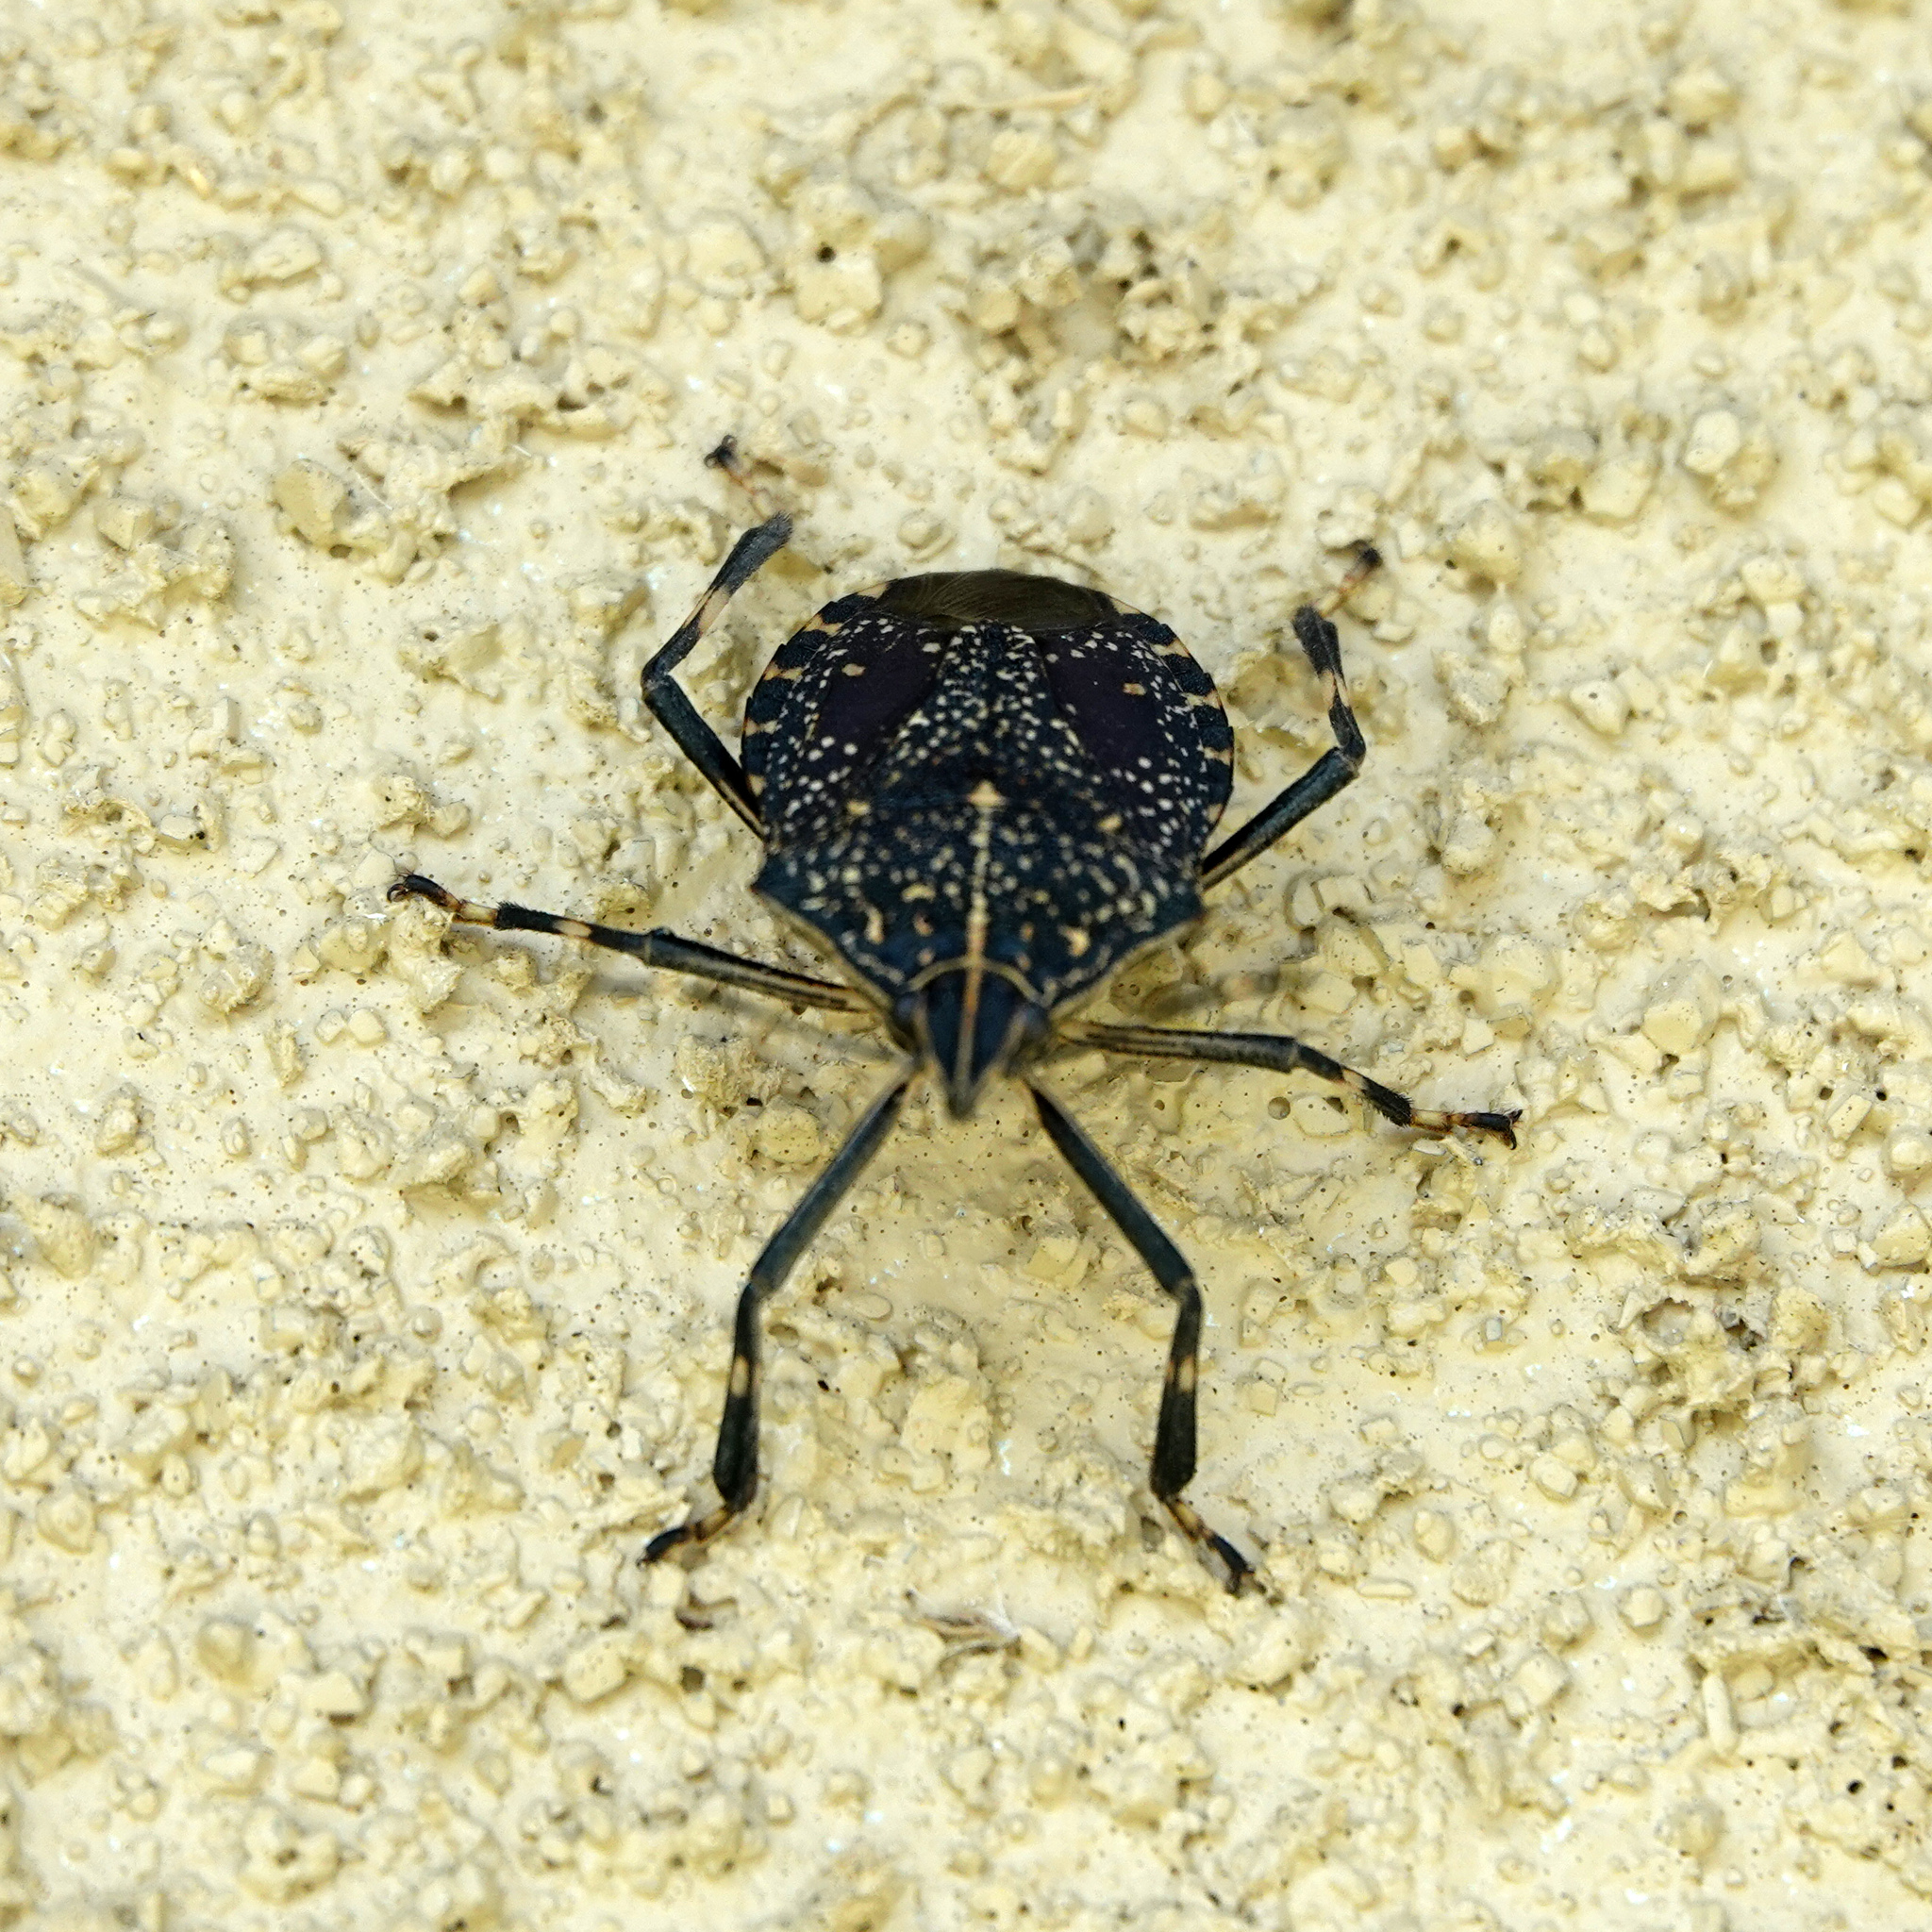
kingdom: Animalia
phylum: Arthropoda
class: Insecta
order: Hemiptera
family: Pentatomidae
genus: Erthesina
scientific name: Erthesina fullo
